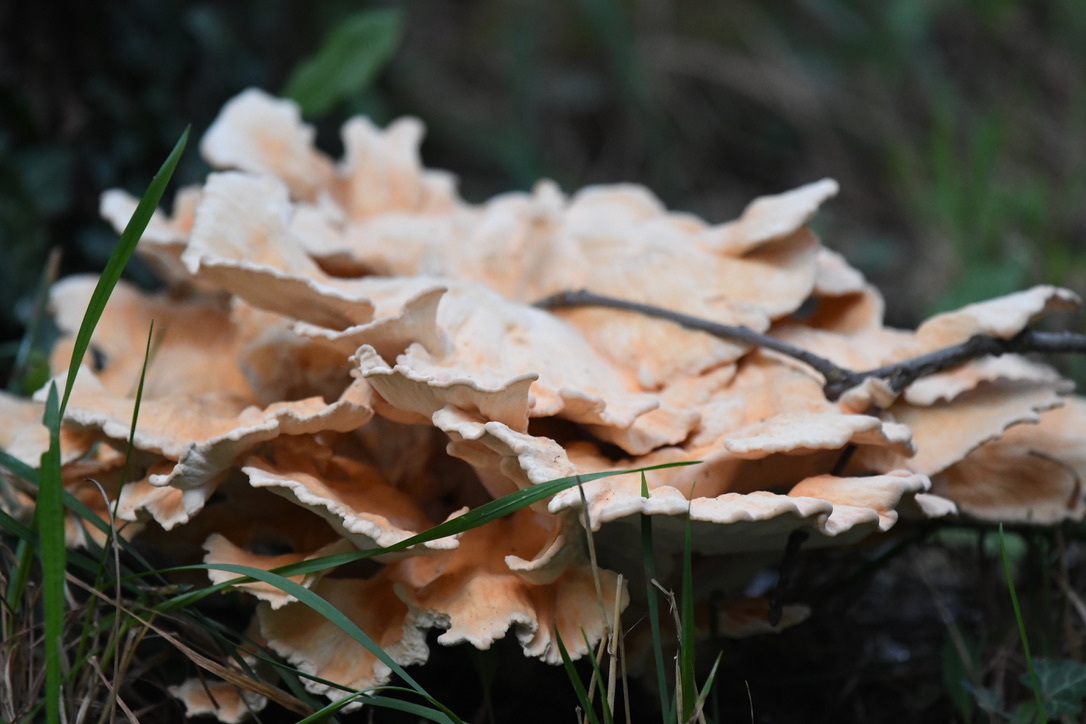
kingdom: Fungi
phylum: Basidiomycota
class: Agaricomycetes
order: Polyporales
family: Laetiporaceae
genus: Laetiporus
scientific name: Laetiporus sulphureus
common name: Chicken of the woods
